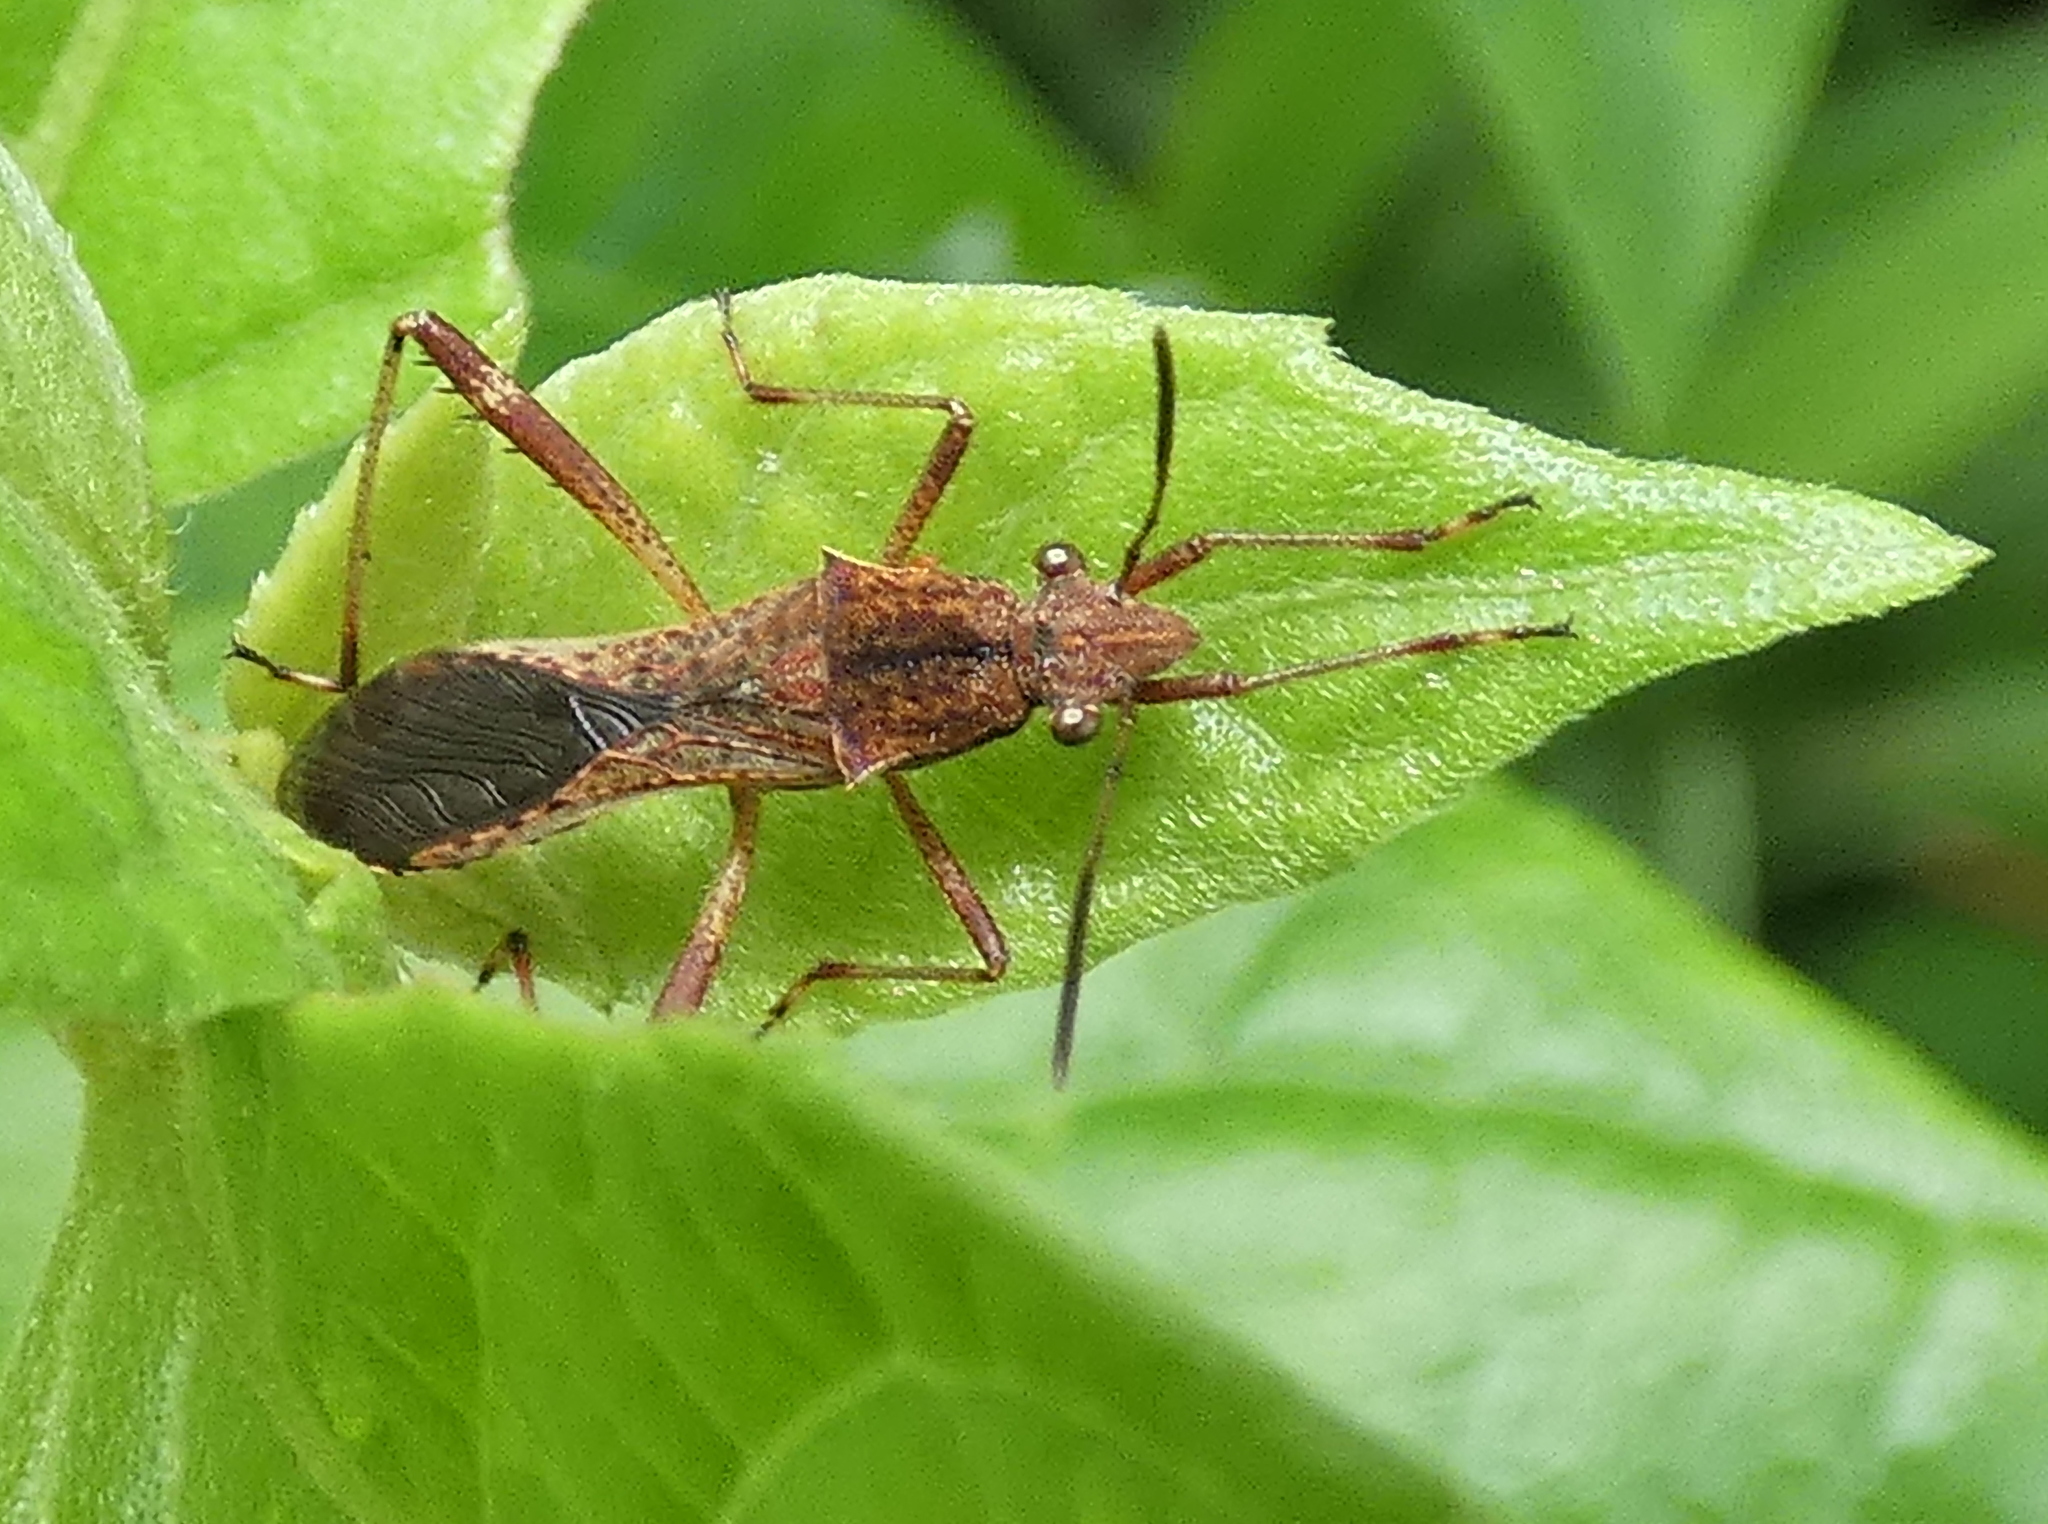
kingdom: Animalia
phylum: Arthropoda
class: Insecta
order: Hemiptera
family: Alydidae
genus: Neomegalotomus
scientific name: Neomegalotomus parvus
